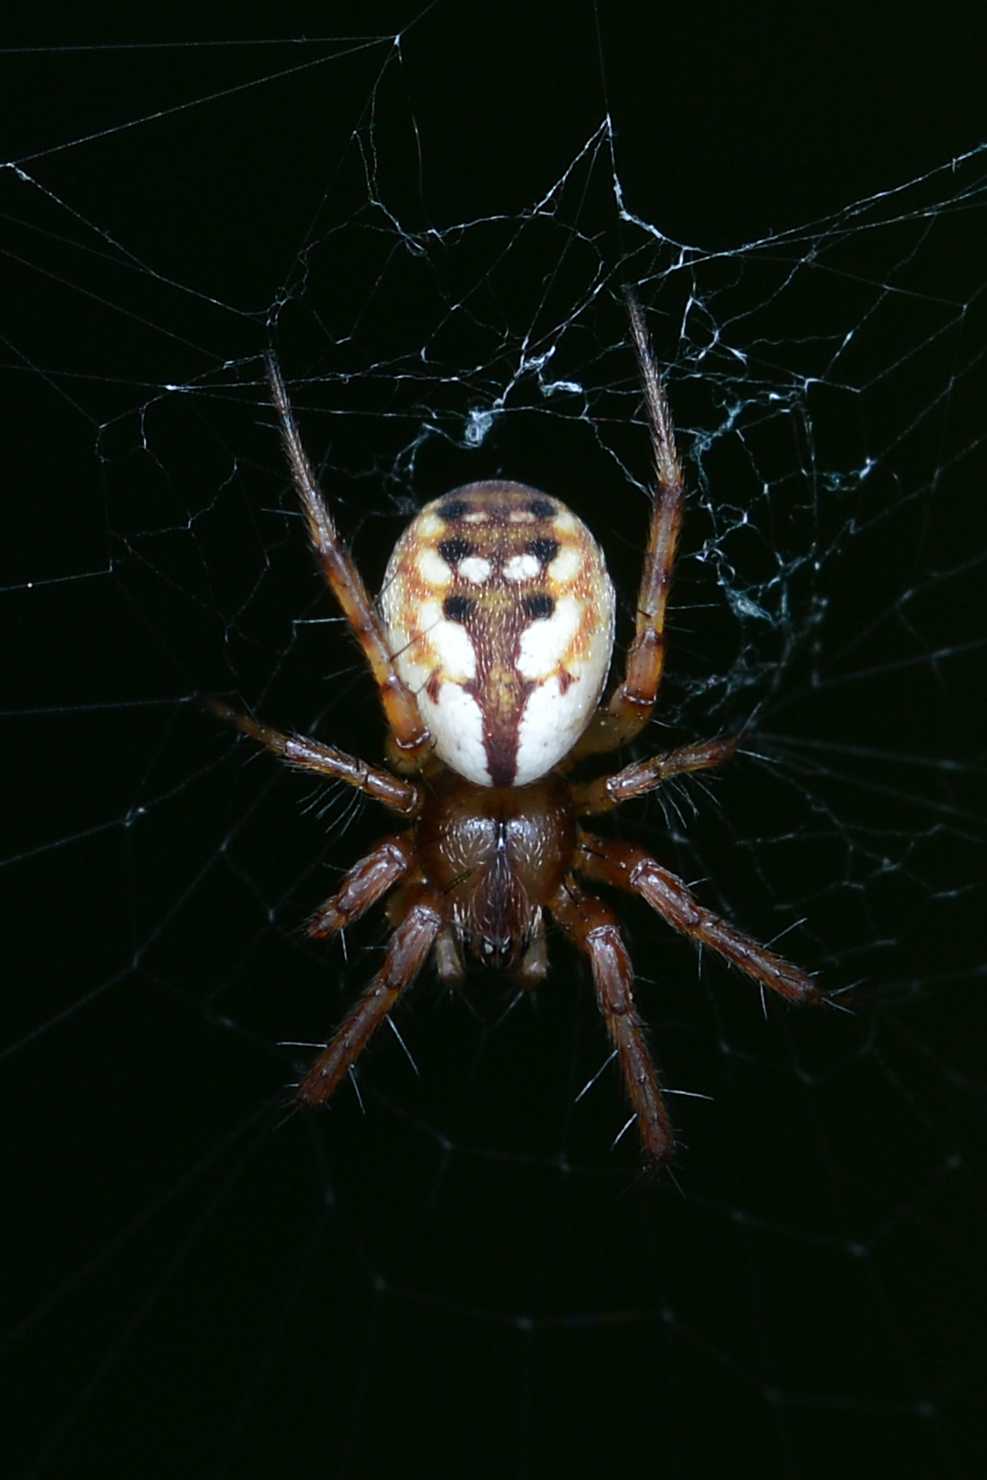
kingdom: Animalia
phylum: Arthropoda
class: Arachnida
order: Araneae
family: Araneidae
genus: Mangora
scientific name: Mangora placida
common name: Tuft-legged orbweaver
